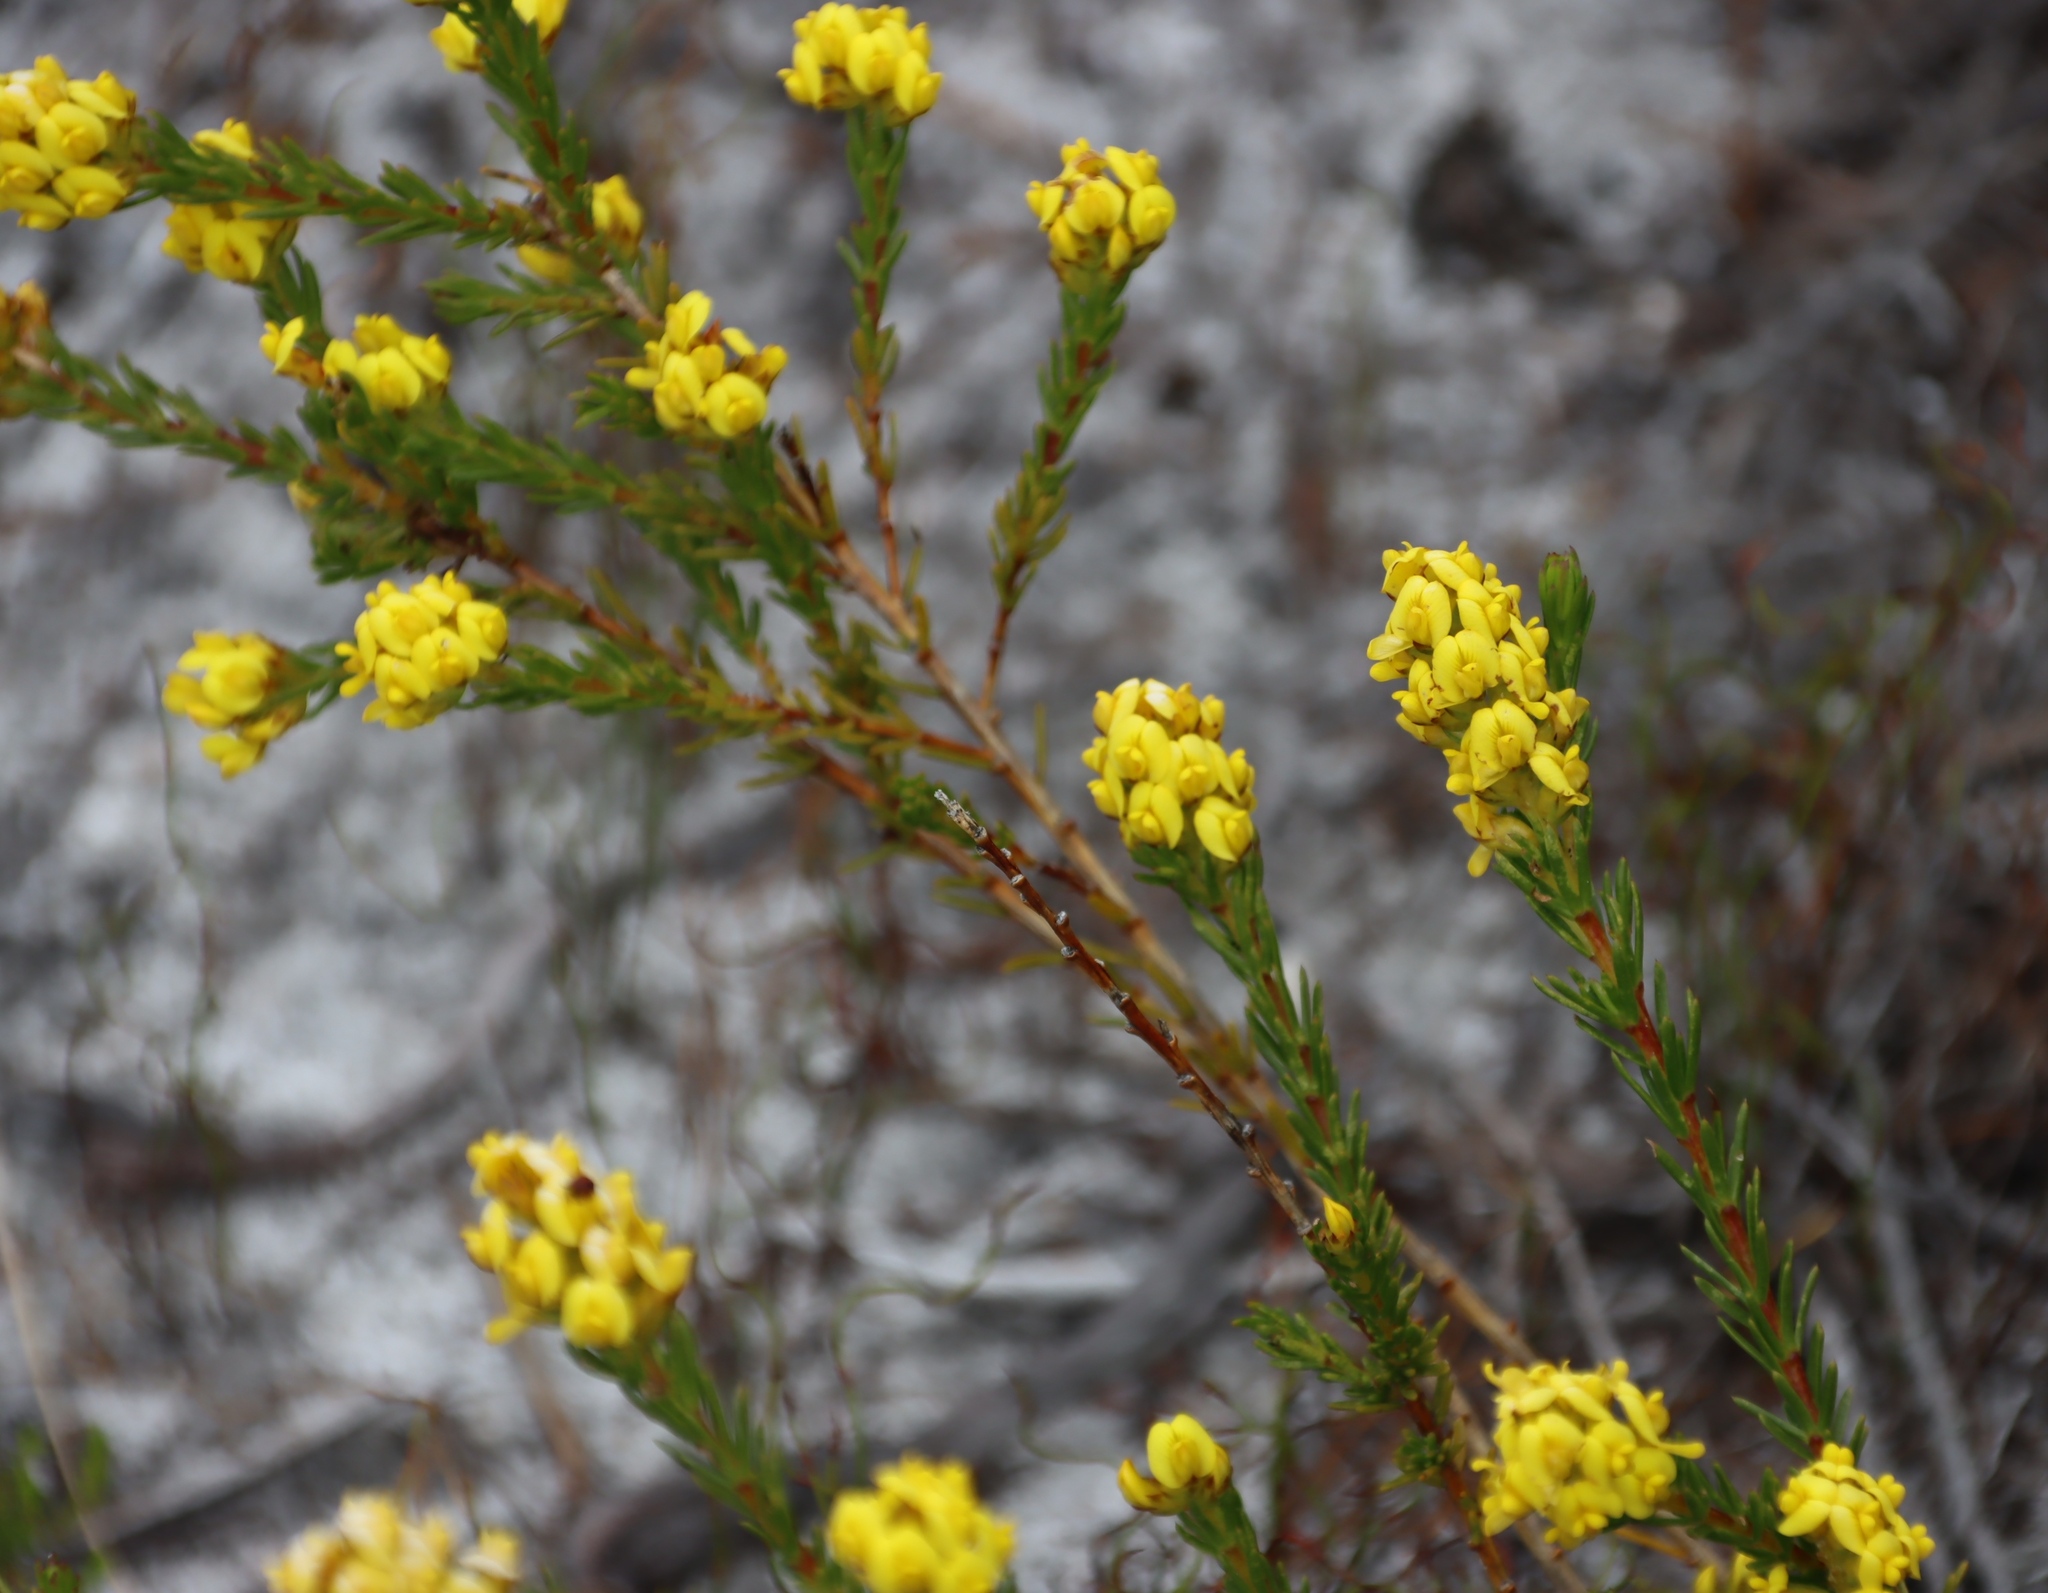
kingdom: Plantae
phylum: Tracheophyta
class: Magnoliopsida
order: Fabales
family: Fabaceae
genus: Aspalathus
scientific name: Aspalathus callosa
